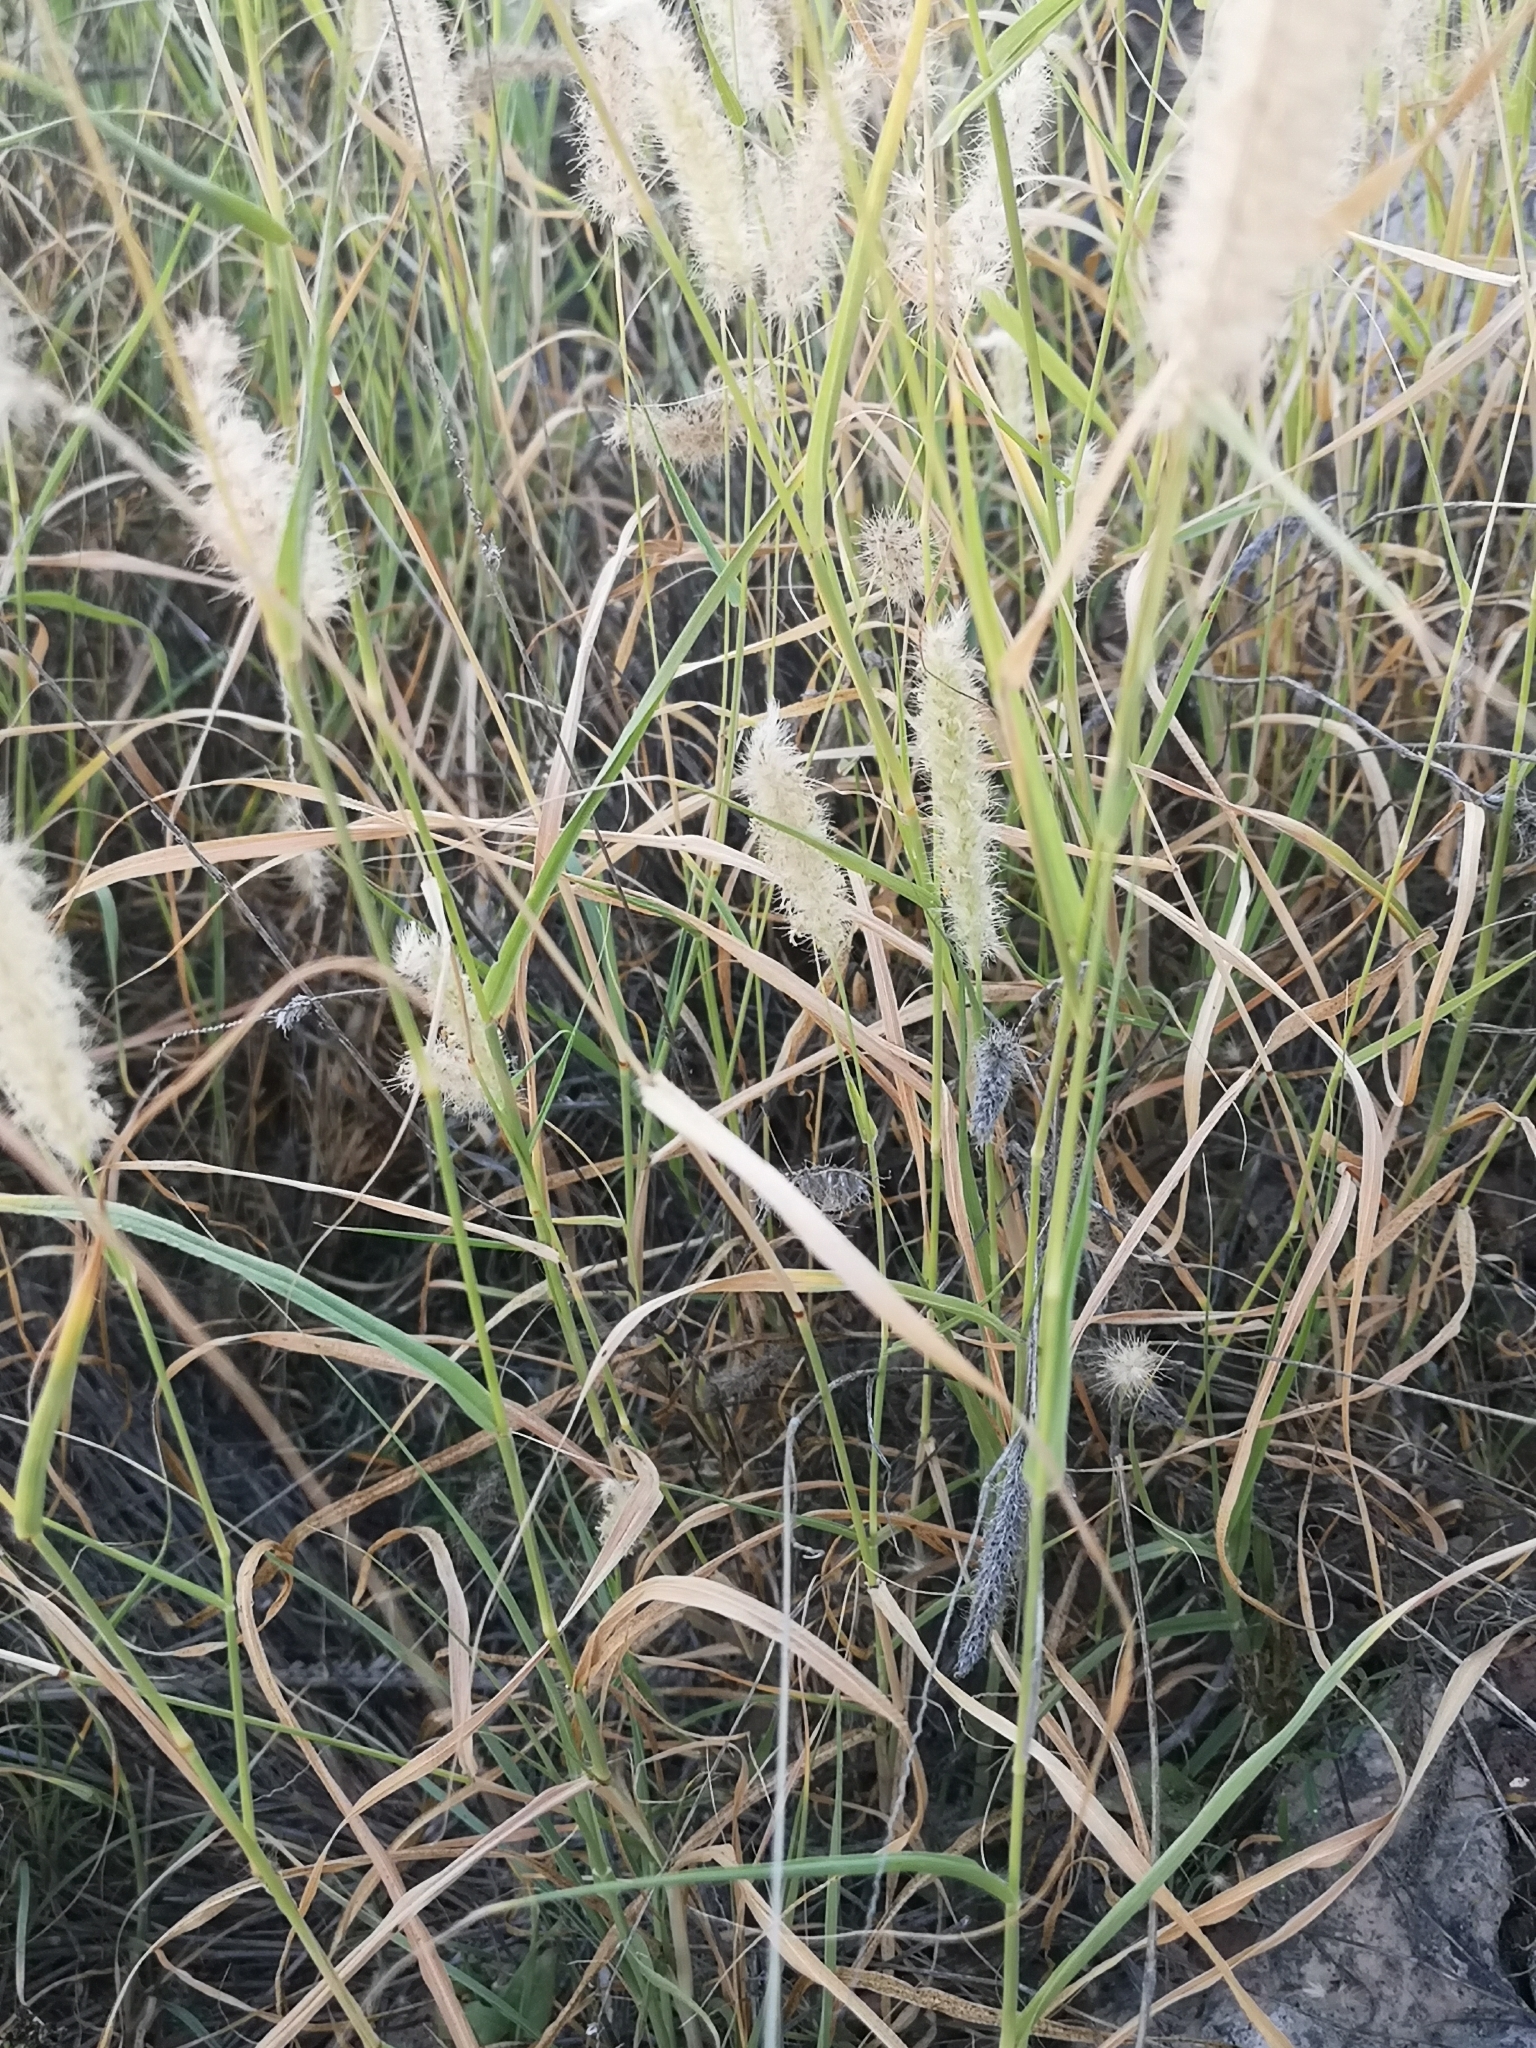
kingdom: Plantae
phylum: Tracheophyta
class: Liliopsida
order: Poales
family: Poaceae
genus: Cenchrus
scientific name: Cenchrus ciliaris
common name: Buffelgrass
